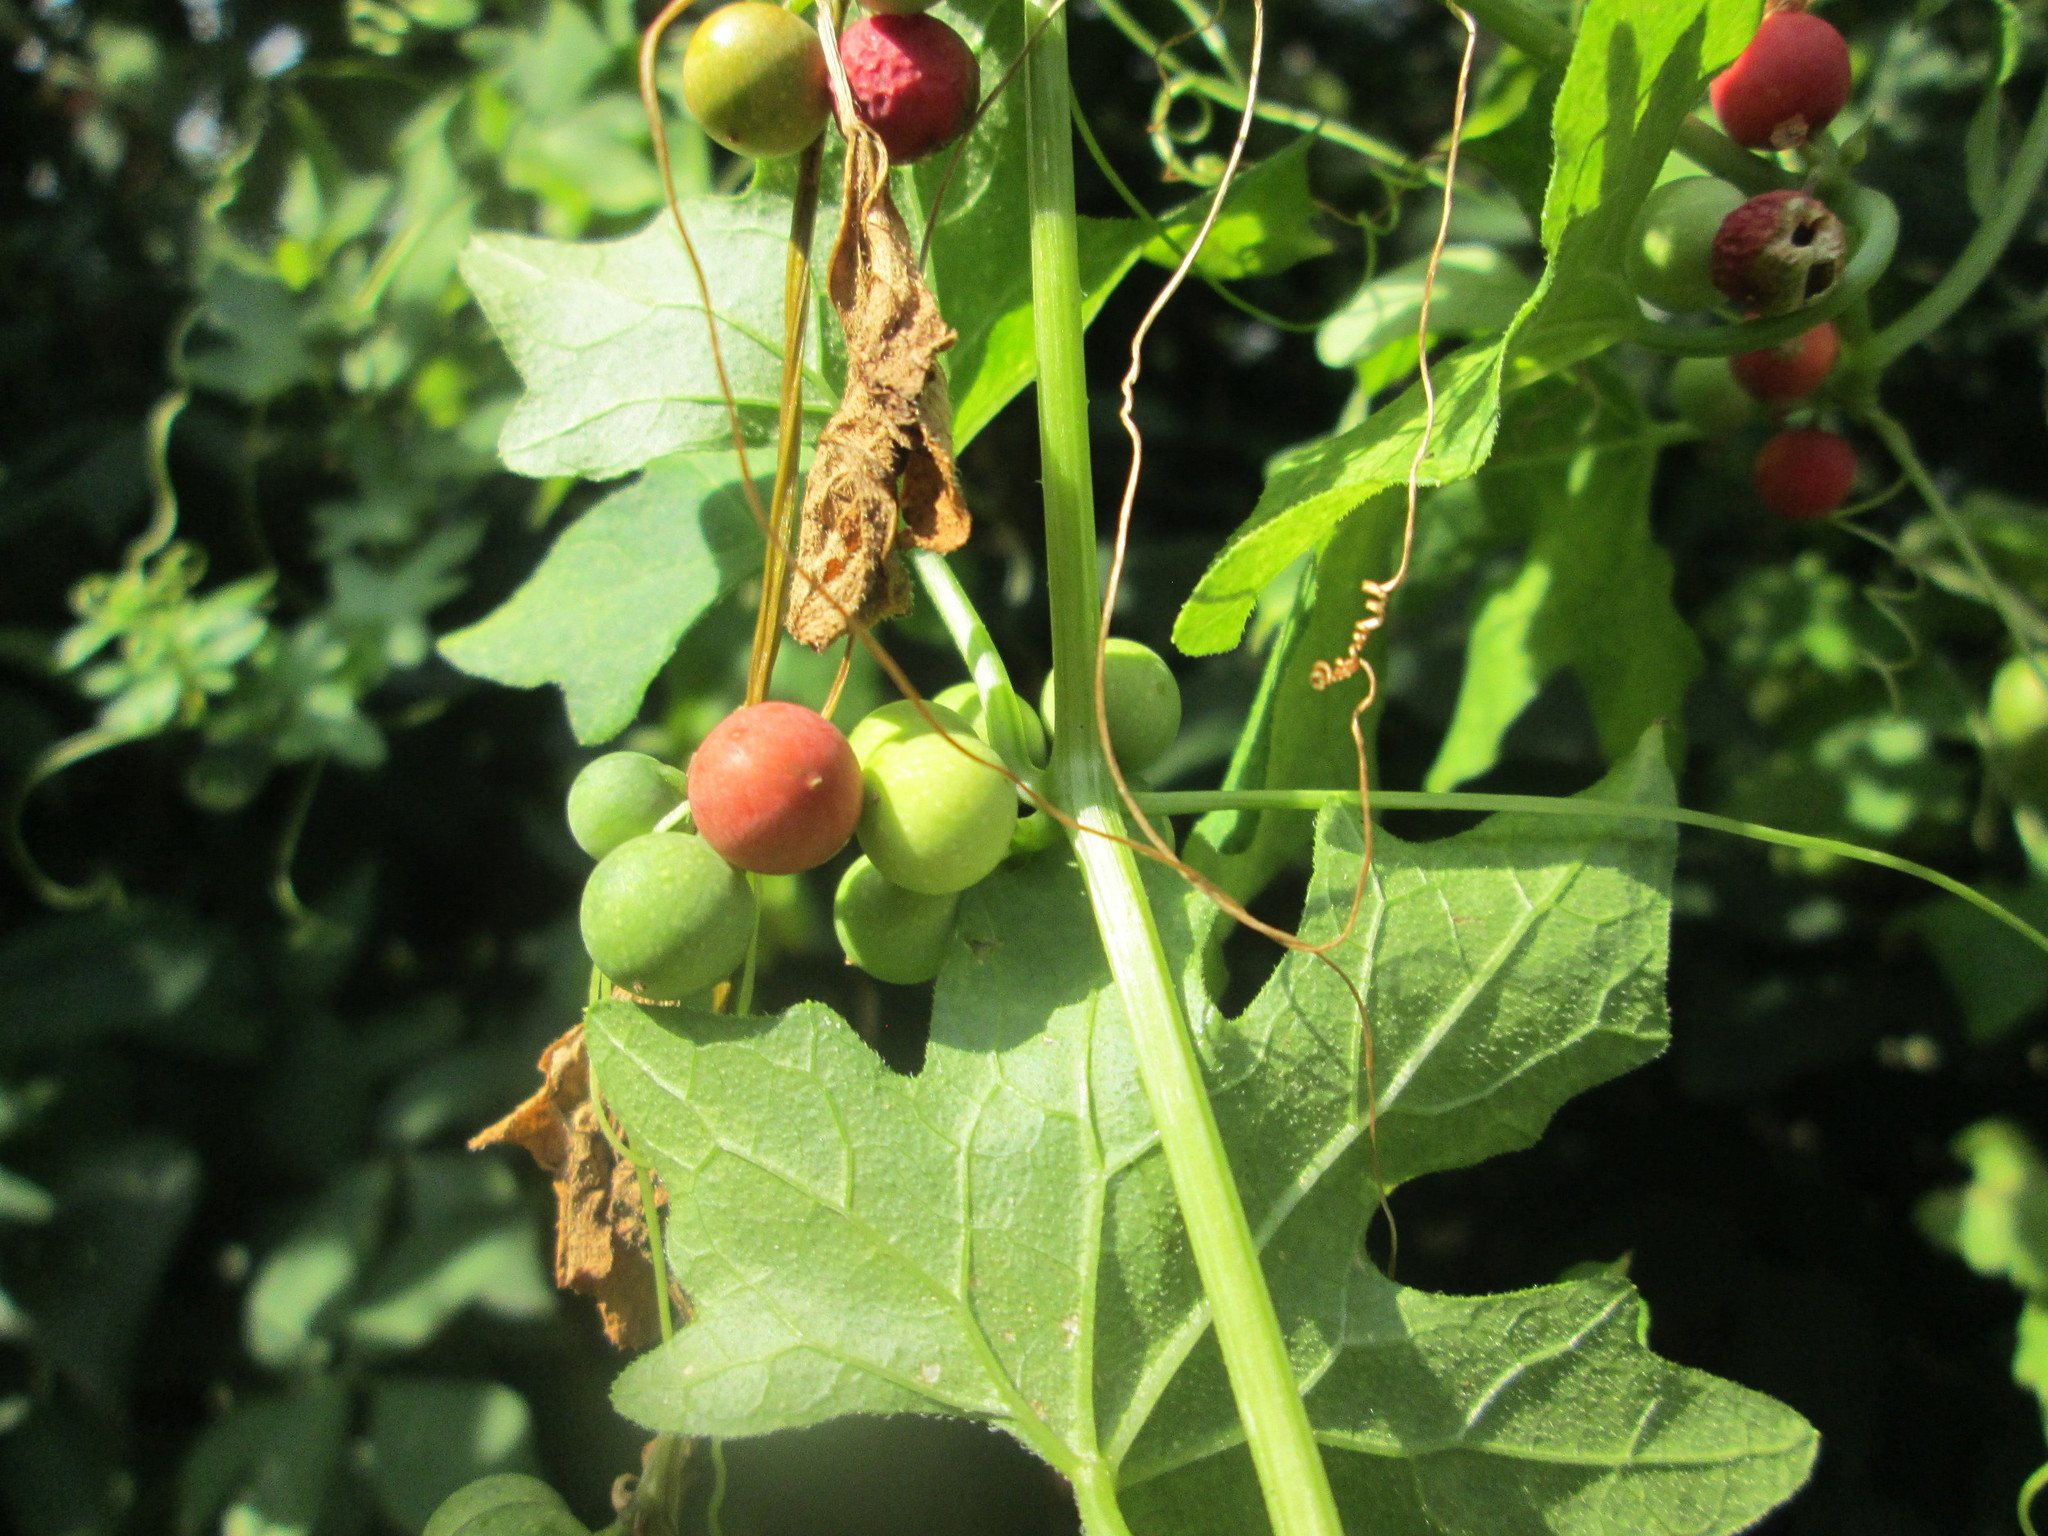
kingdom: Plantae
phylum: Tracheophyta
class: Magnoliopsida
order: Cucurbitales
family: Cucurbitaceae
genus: Bryonia
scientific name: Bryonia dioica
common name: White bryony
